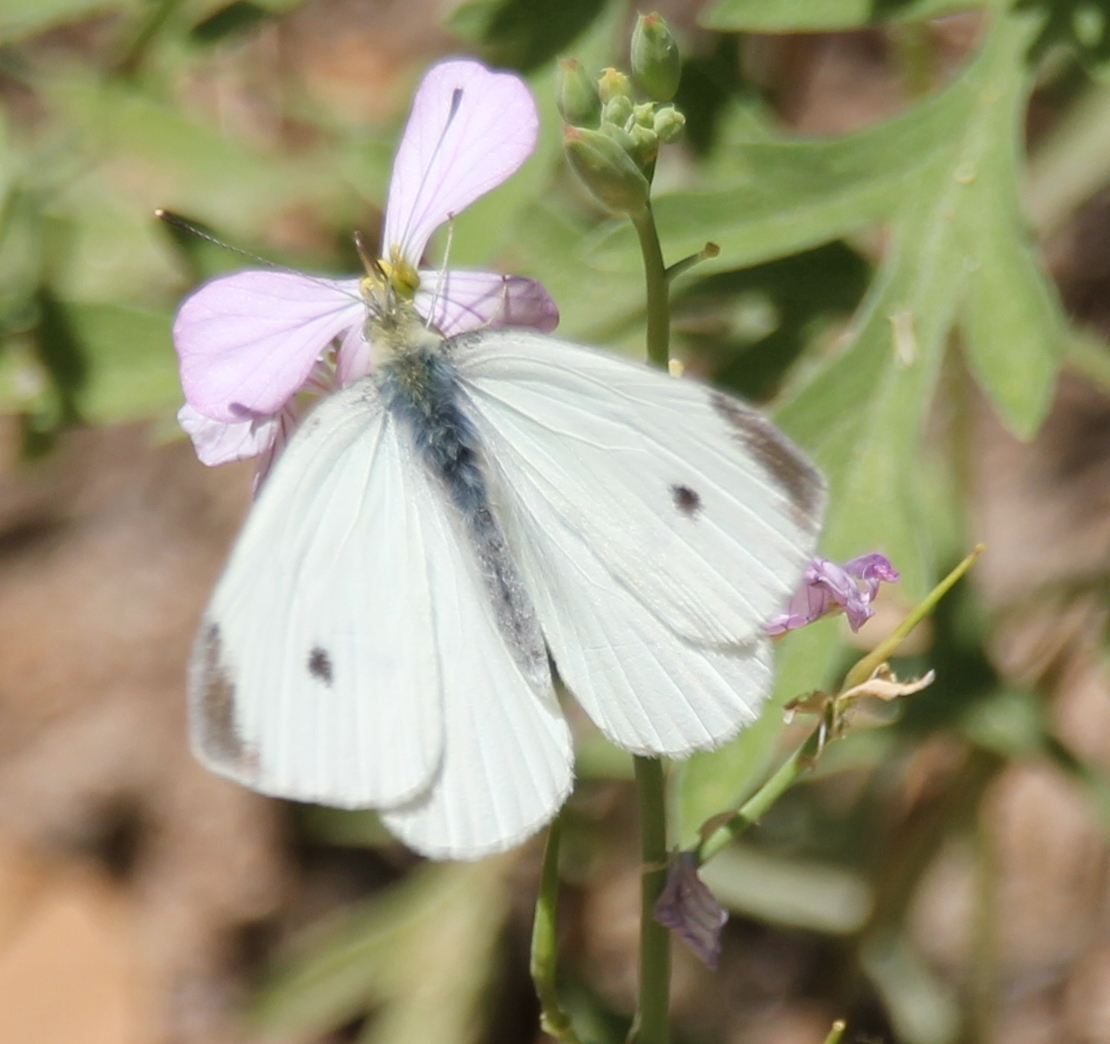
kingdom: Animalia
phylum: Arthropoda
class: Insecta
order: Lepidoptera
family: Pieridae
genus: Pieris
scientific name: Pieris rapae
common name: Small white
